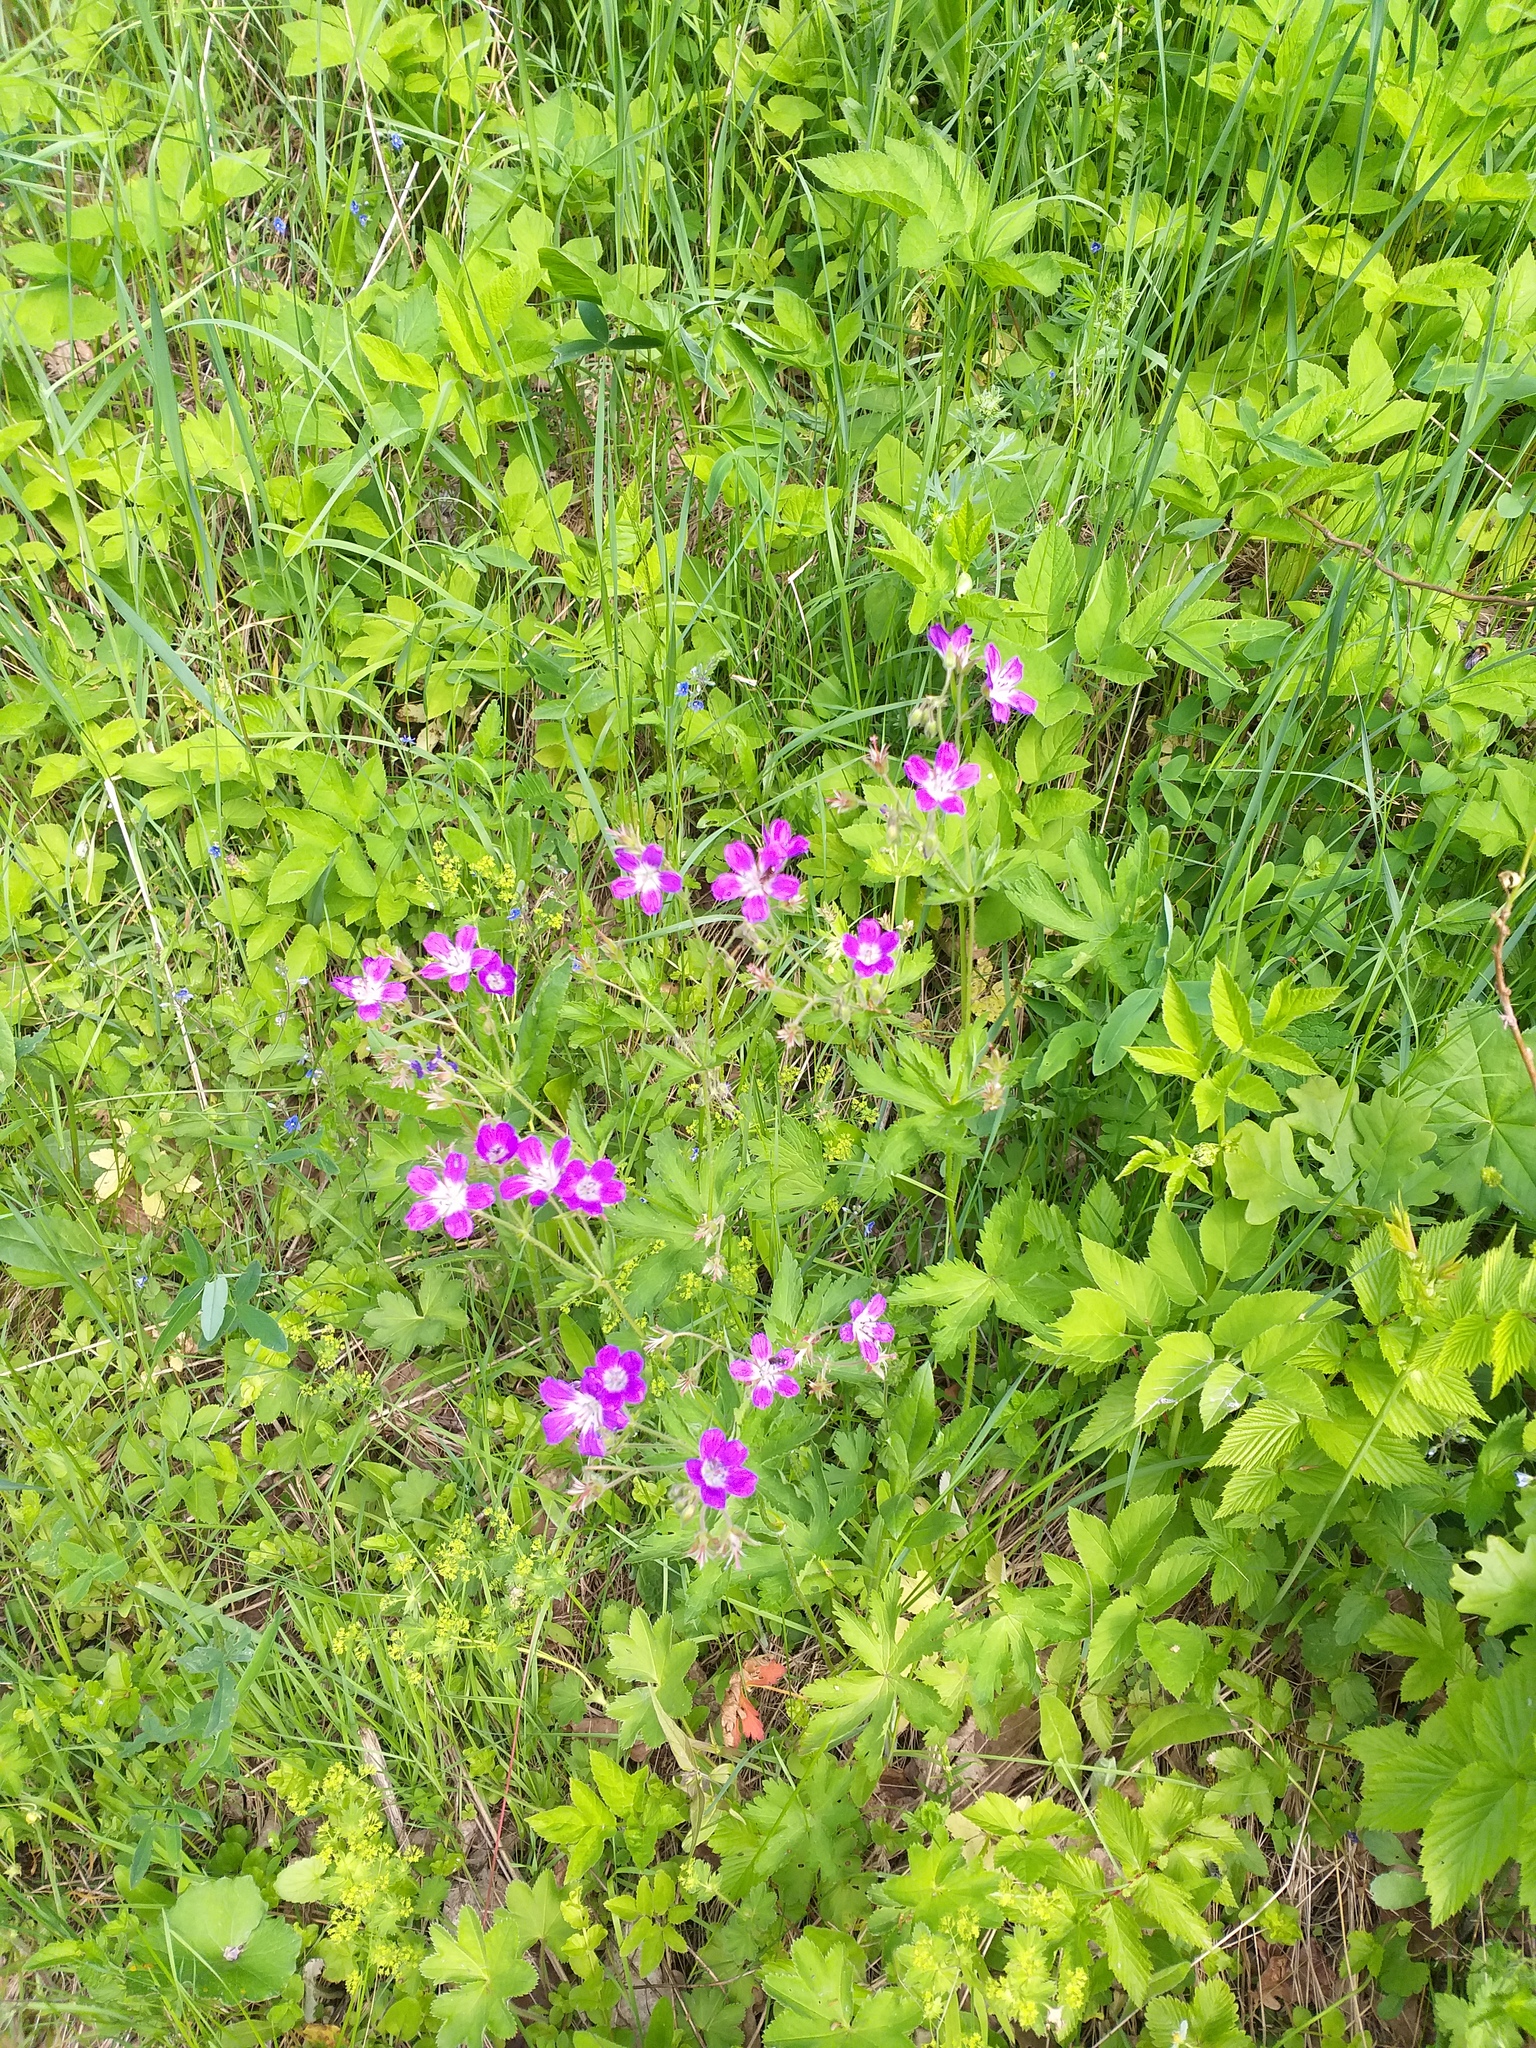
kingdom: Plantae
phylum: Tracheophyta
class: Magnoliopsida
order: Geraniales
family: Geraniaceae
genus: Geranium
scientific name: Geranium sylvaticum
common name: Wood crane's-bill
